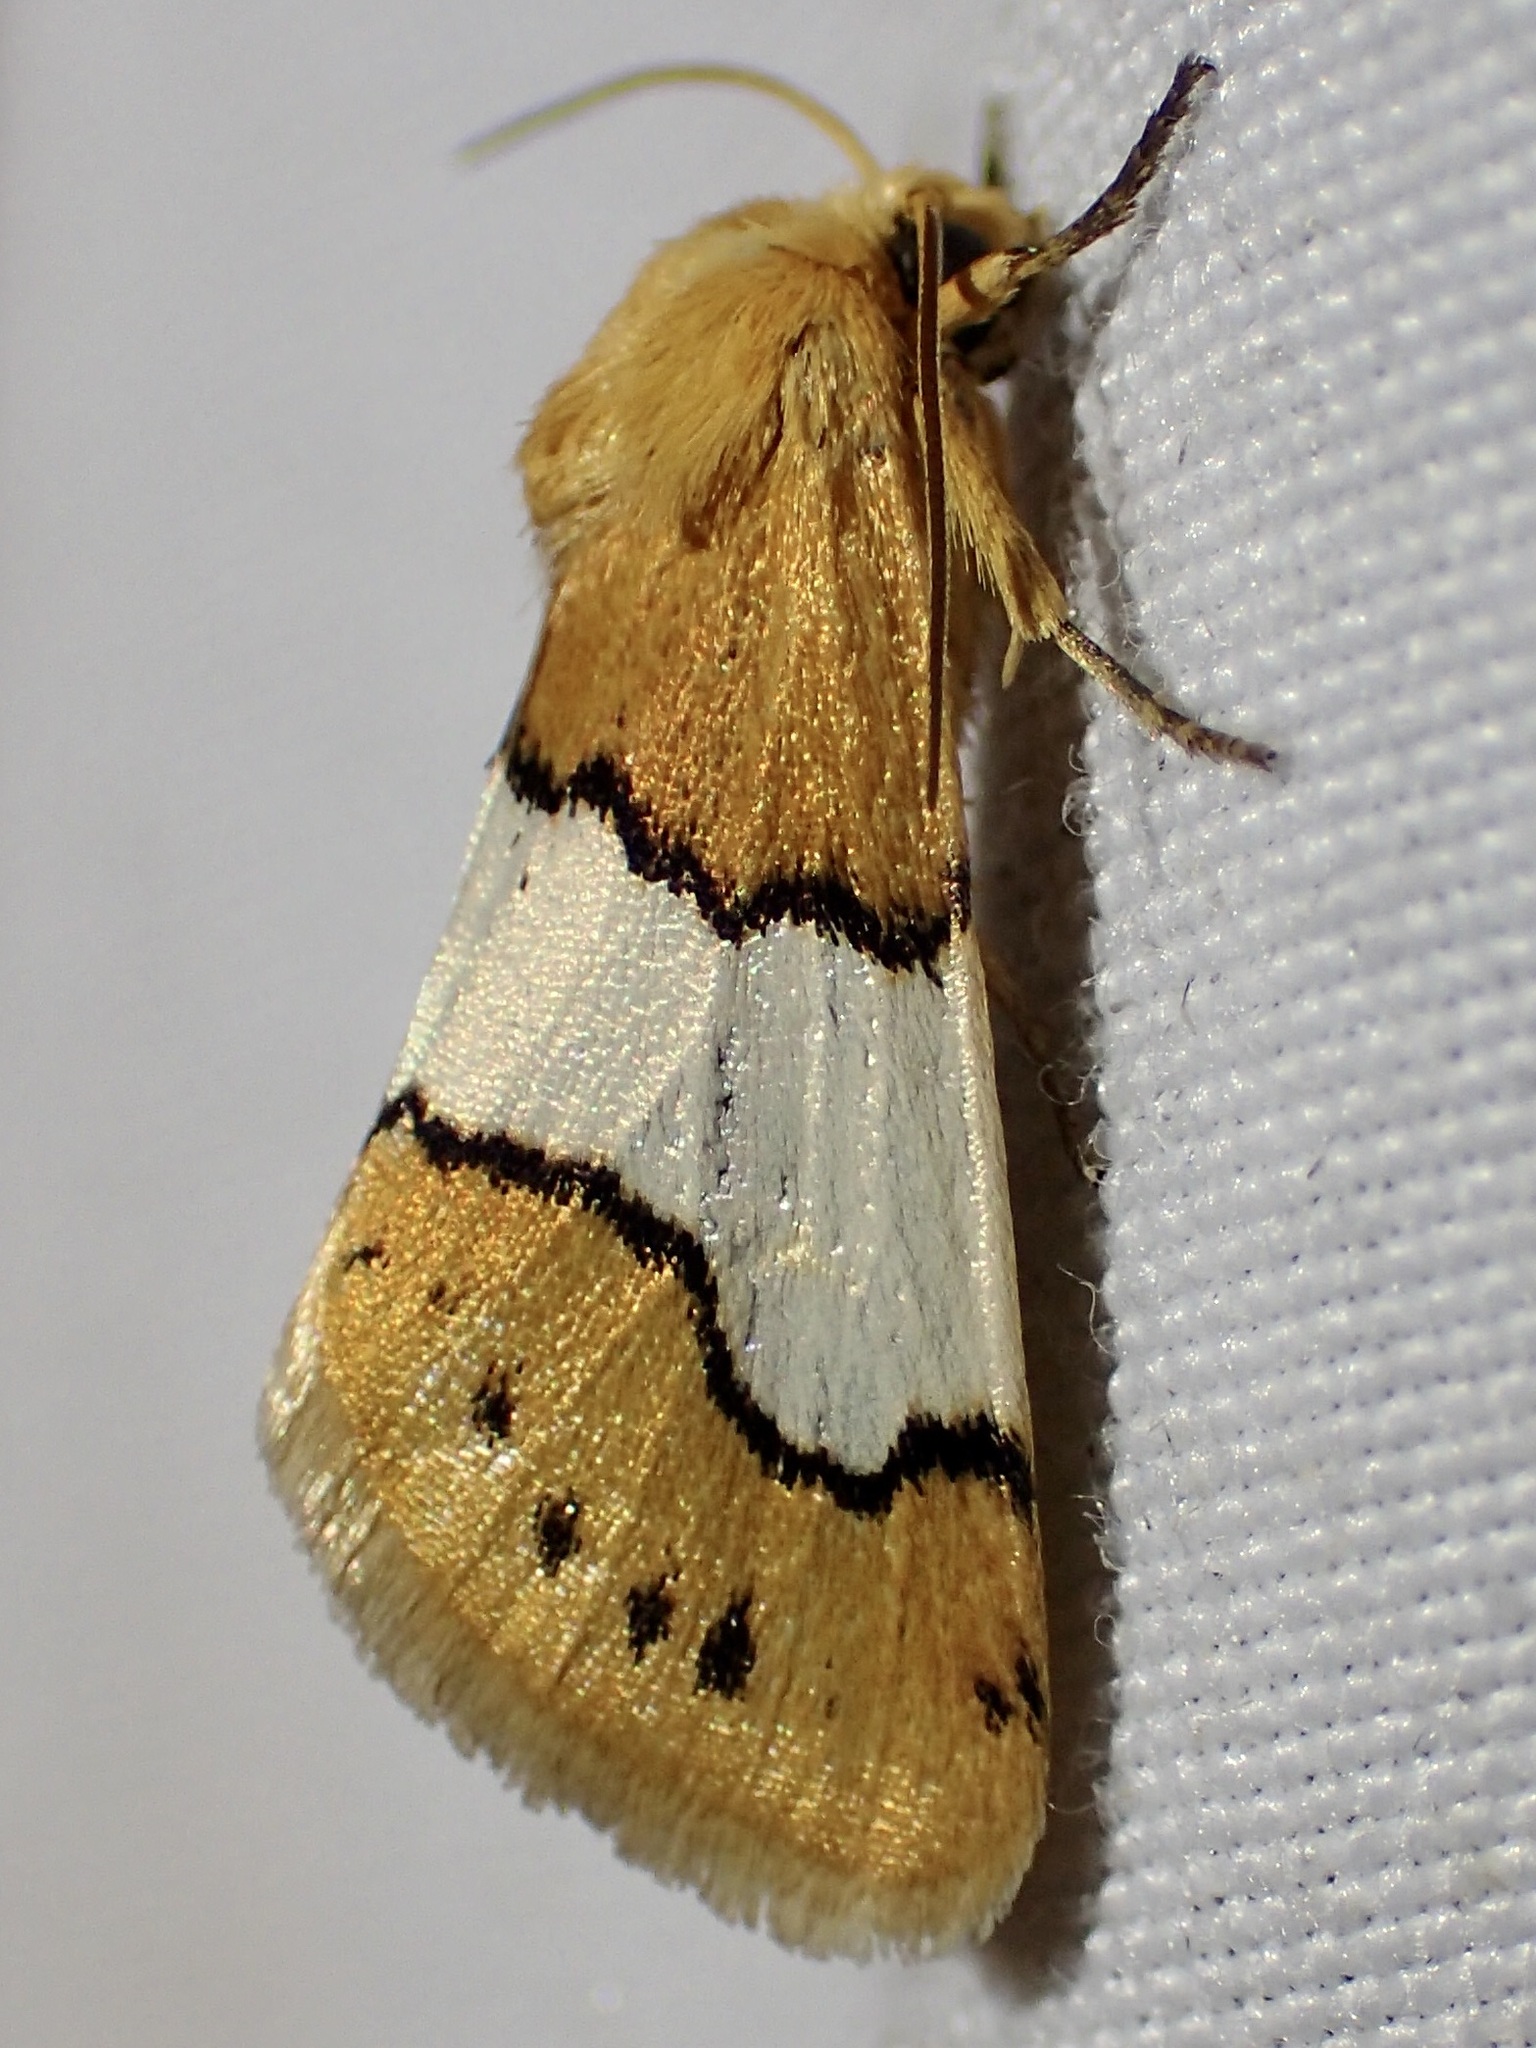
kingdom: Animalia
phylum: Arthropoda
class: Insecta
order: Lepidoptera
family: Noctuidae
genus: Lineostriastiria
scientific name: Lineostriastiria hachita
